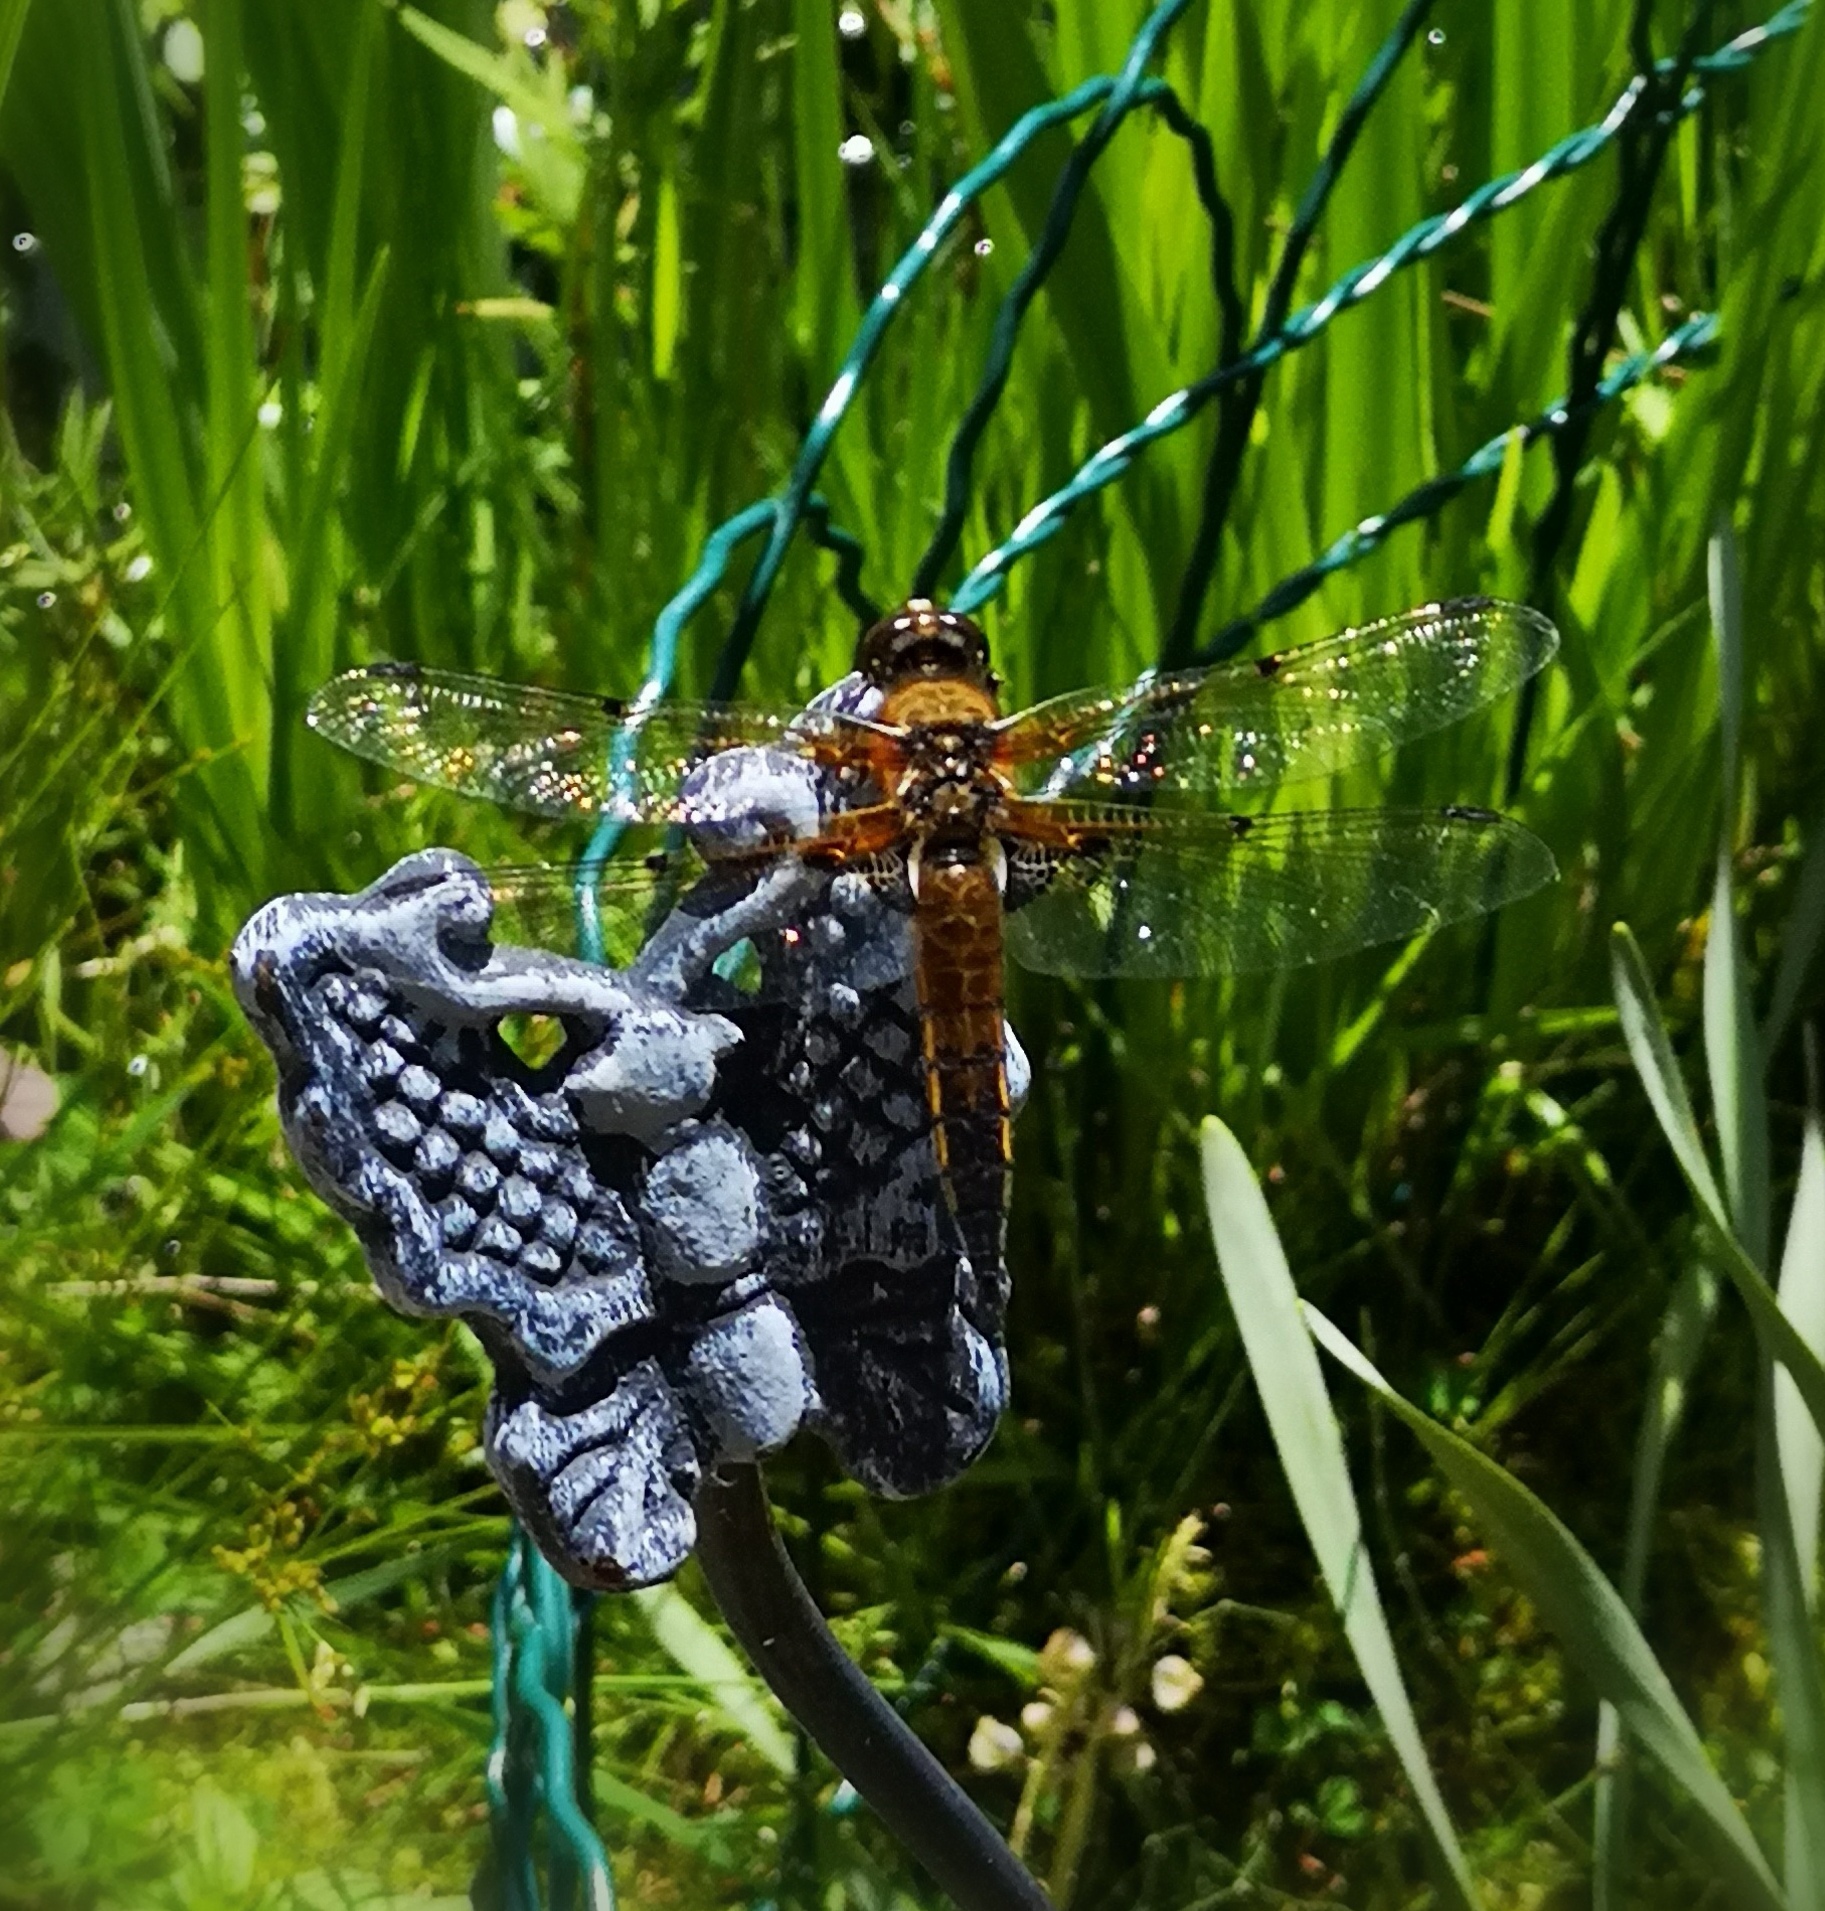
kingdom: Animalia
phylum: Arthropoda
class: Insecta
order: Odonata
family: Libellulidae
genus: Libellula
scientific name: Libellula quadrimaculata
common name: Four-spotted chaser
